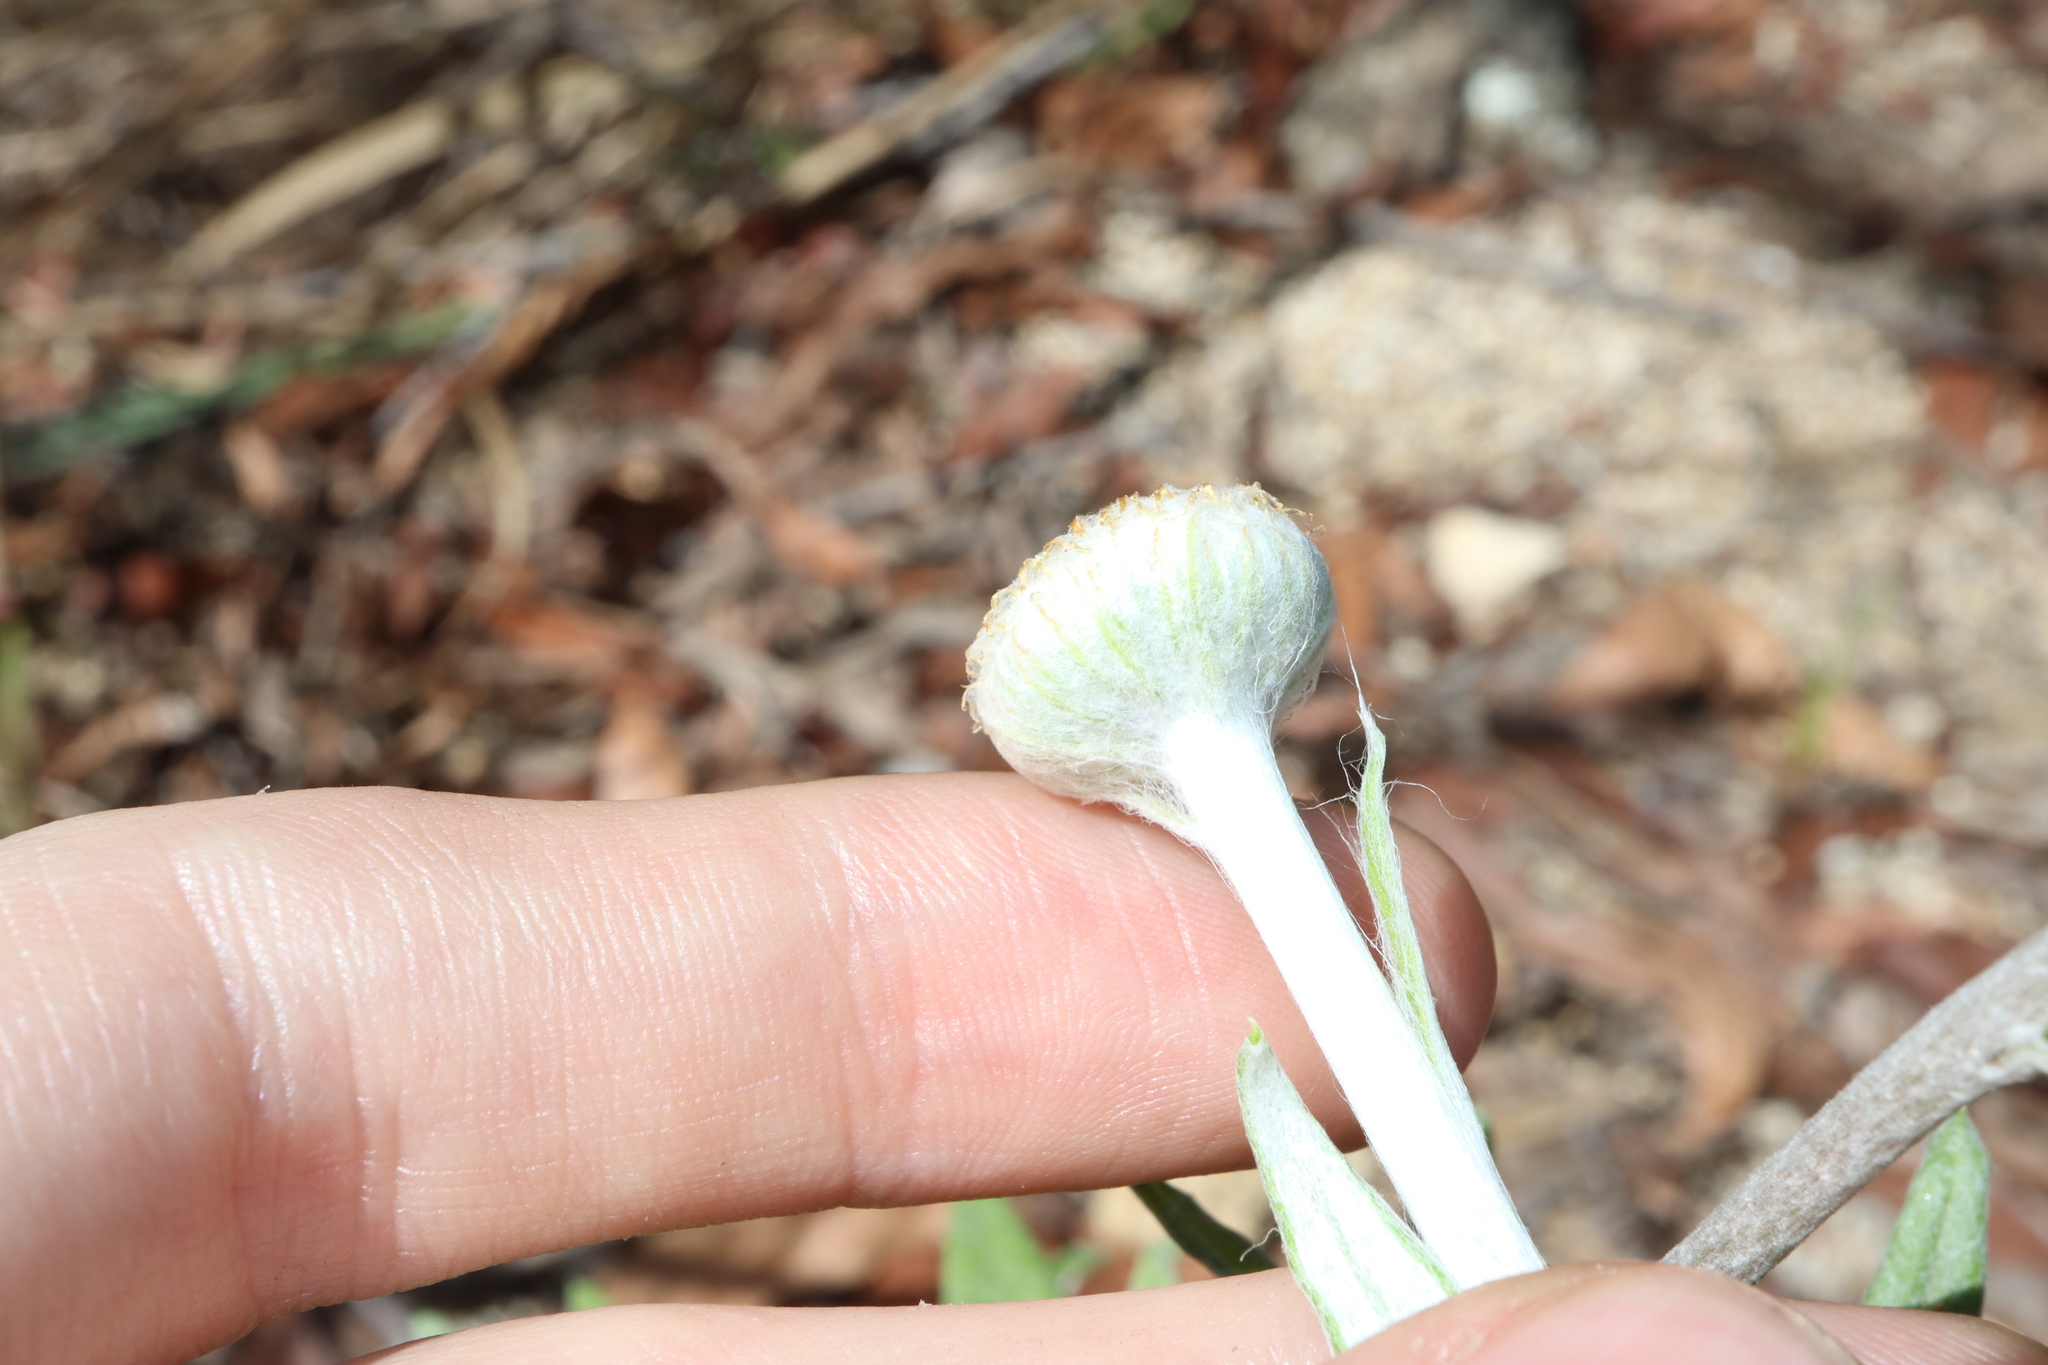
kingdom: Plantae
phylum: Tracheophyta
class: Magnoliopsida
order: Asterales
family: Asteraceae
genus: Coronidium
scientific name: Coronidium rupicola
